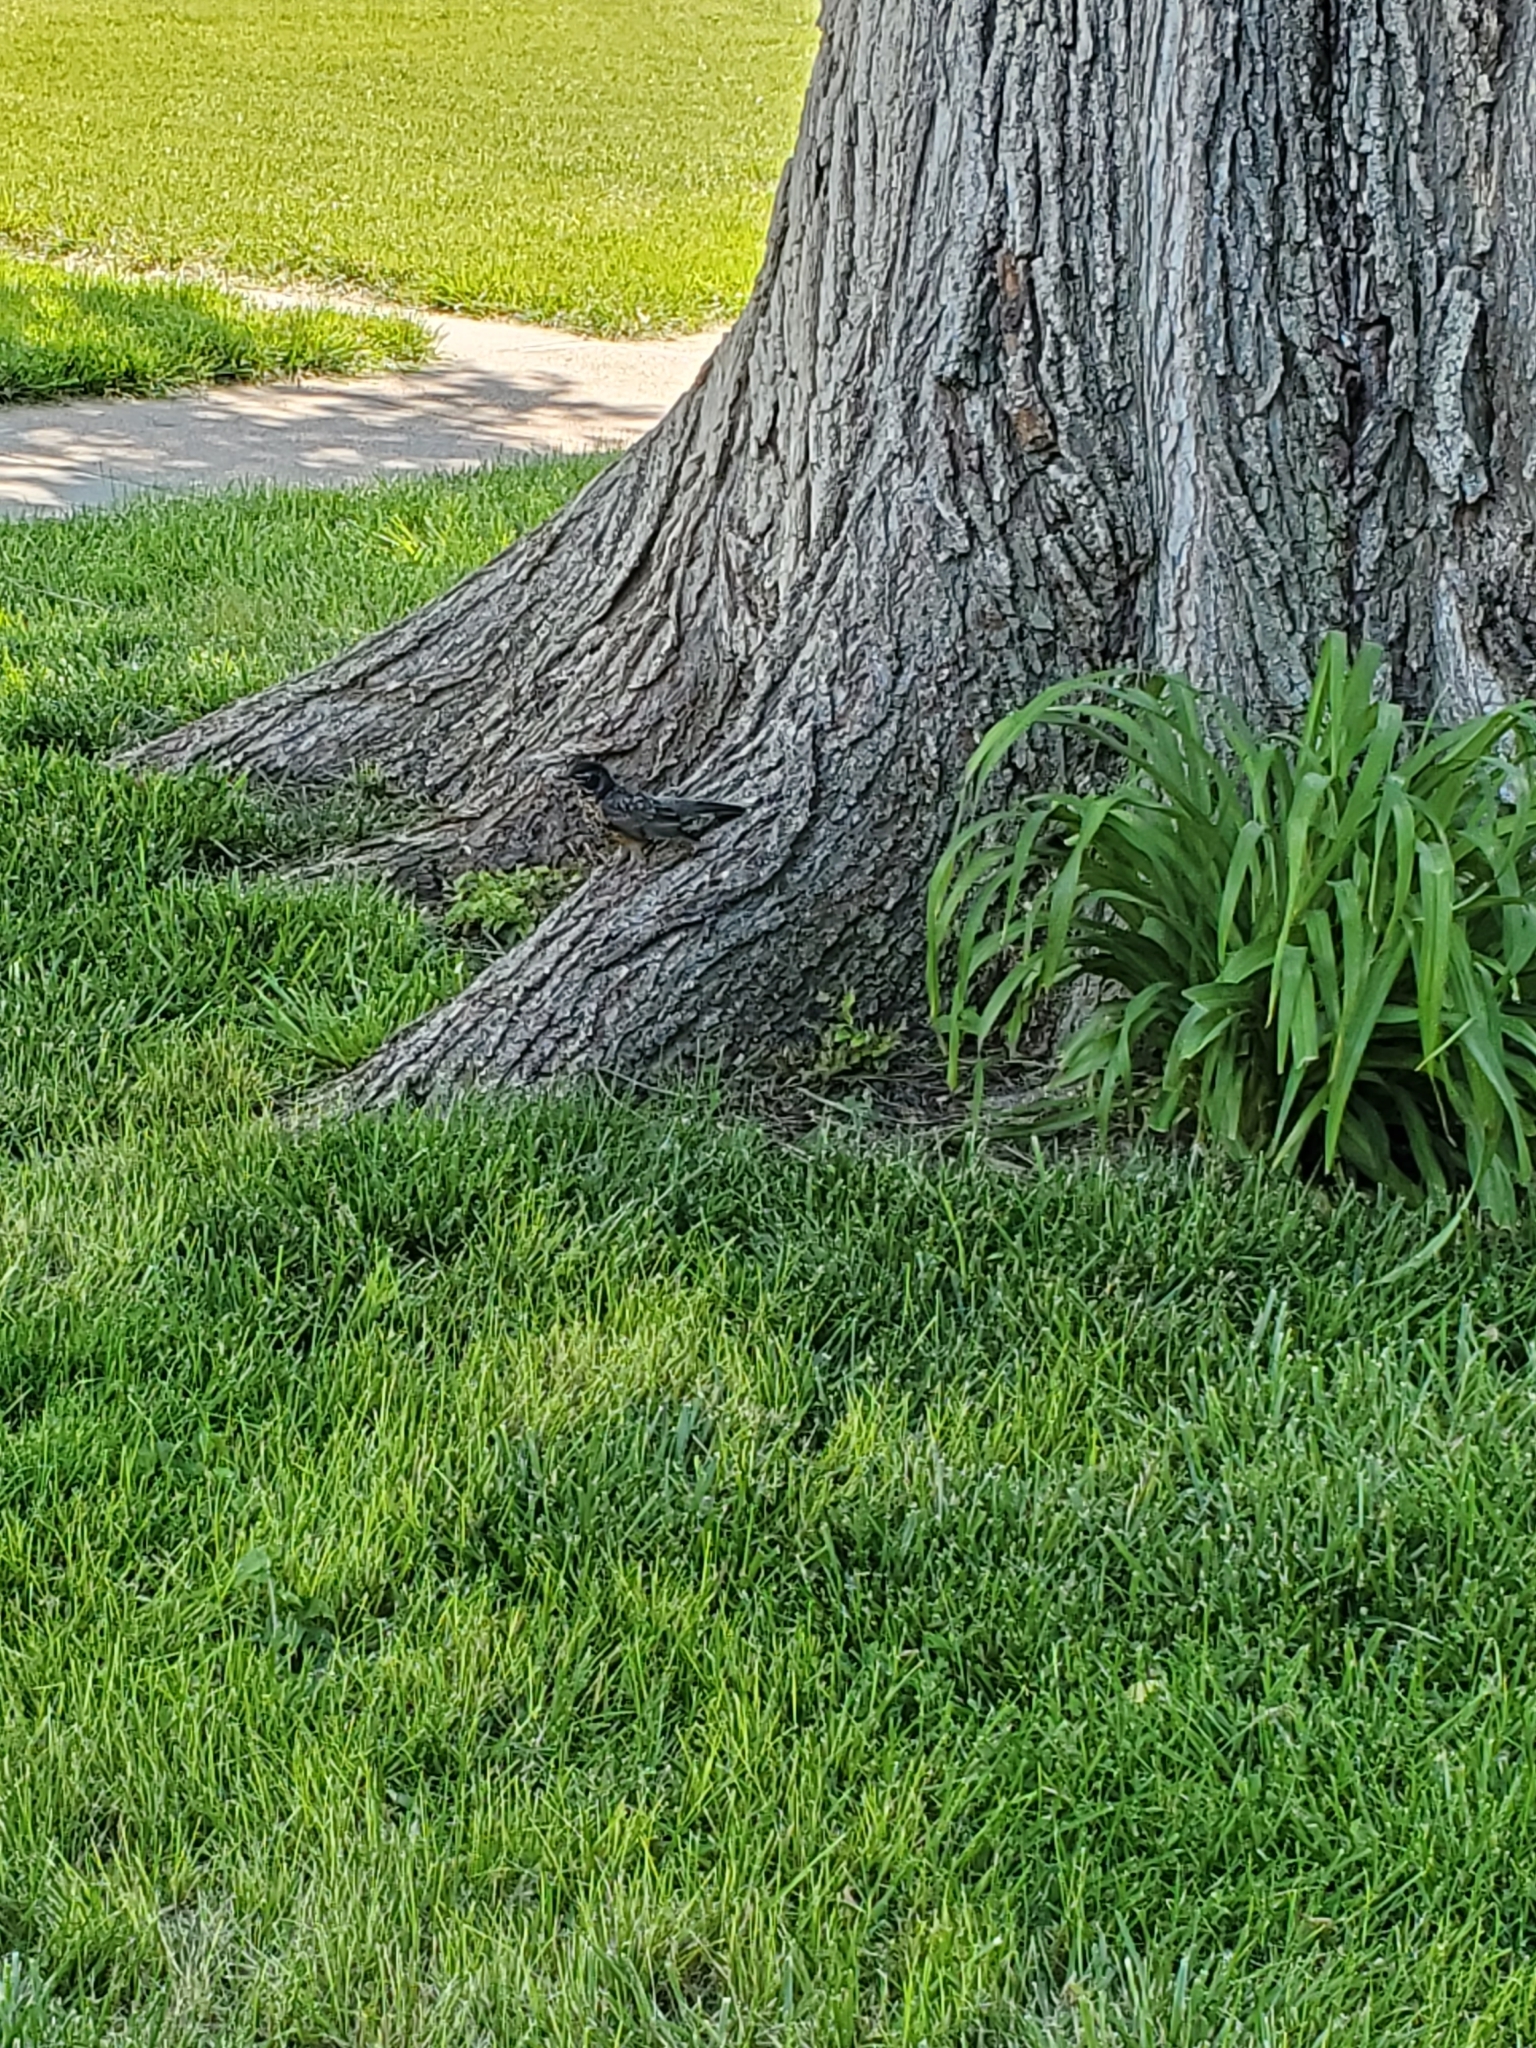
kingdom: Animalia
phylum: Chordata
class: Aves
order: Passeriformes
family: Turdidae
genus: Turdus
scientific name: Turdus migratorius
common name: American robin
